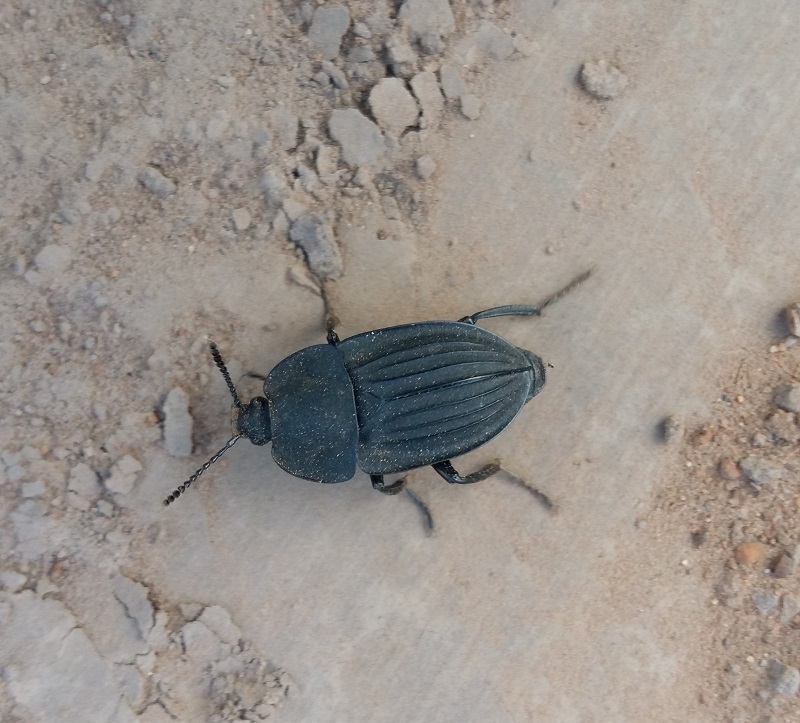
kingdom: Animalia
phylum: Arthropoda
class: Insecta
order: Coleoptera
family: Staphylinidae
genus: Silpha
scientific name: Silpha capicola
